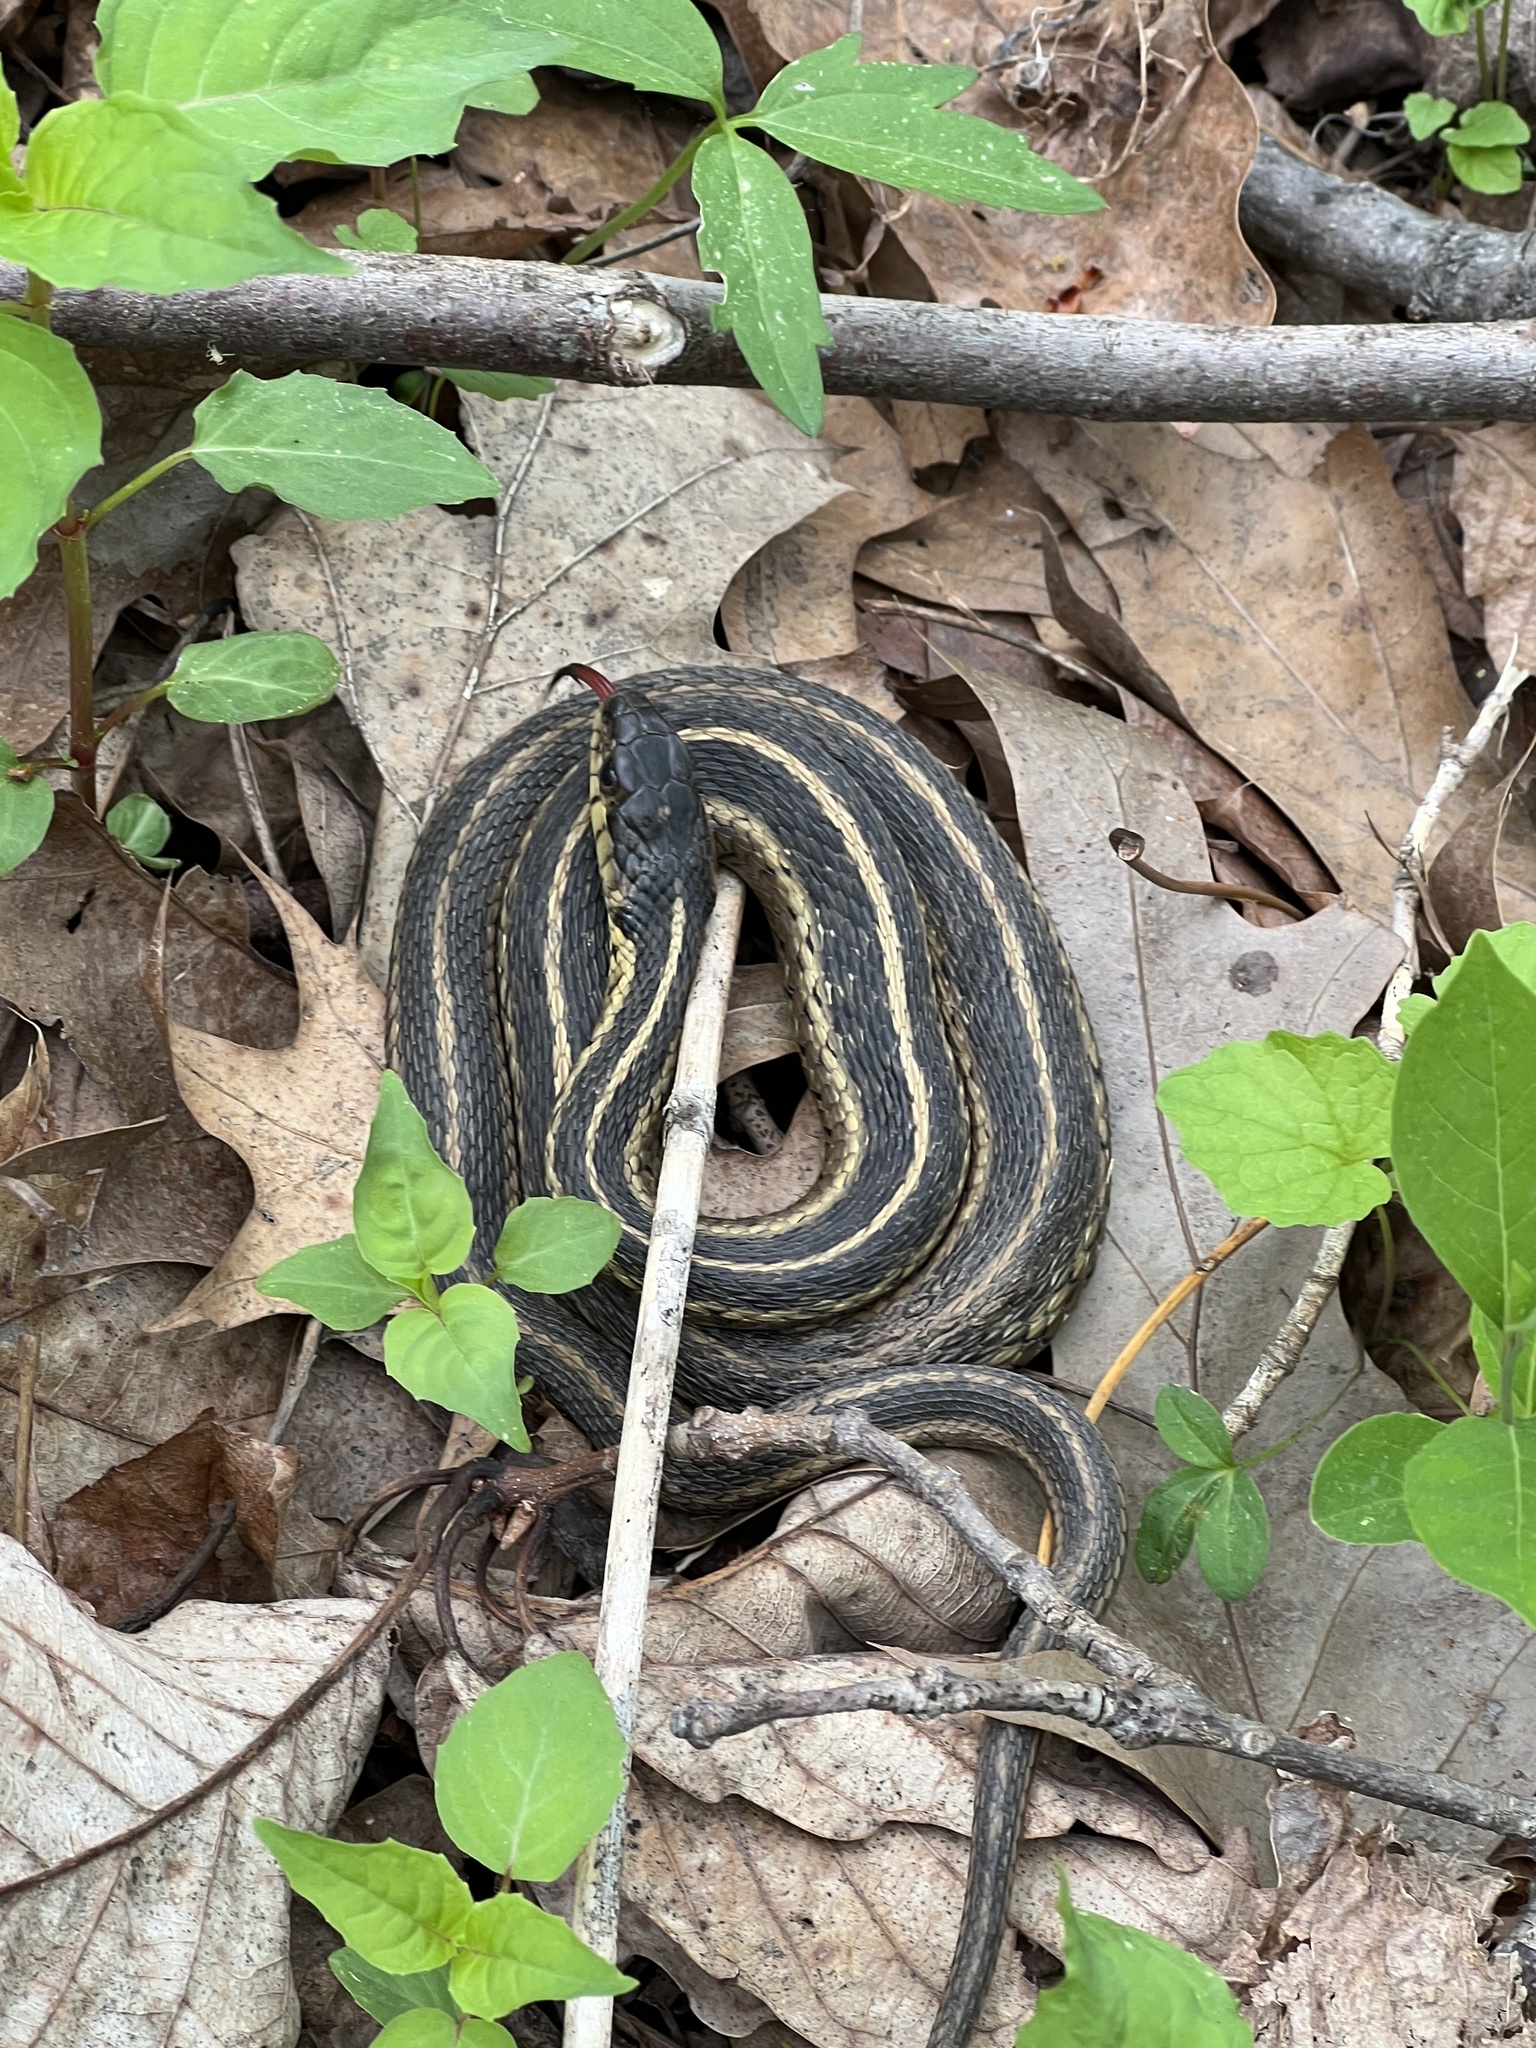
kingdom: Animalia
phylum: Chordata
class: Squamata
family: Colubridae
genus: Thamnophis
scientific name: Thamnophis sirtalis
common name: Common garter snake
